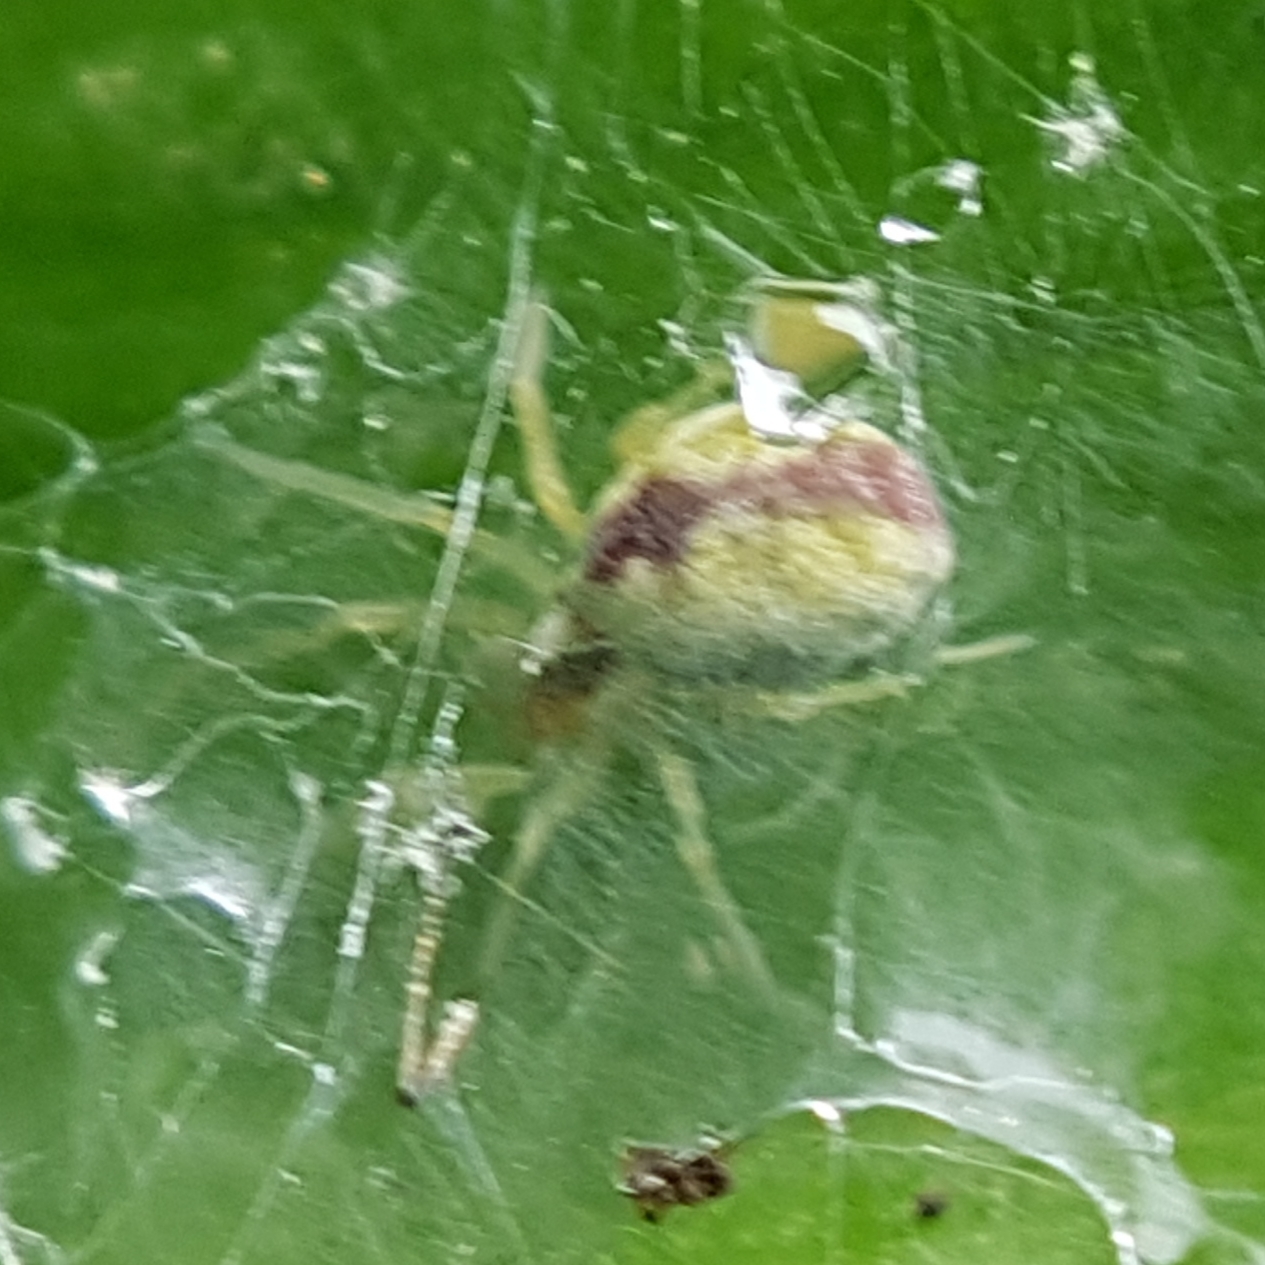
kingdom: Animalia
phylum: Arthropoda
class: Arachnida
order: Araneae
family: Dictynidae
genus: Nigma
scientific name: Nigma puella
